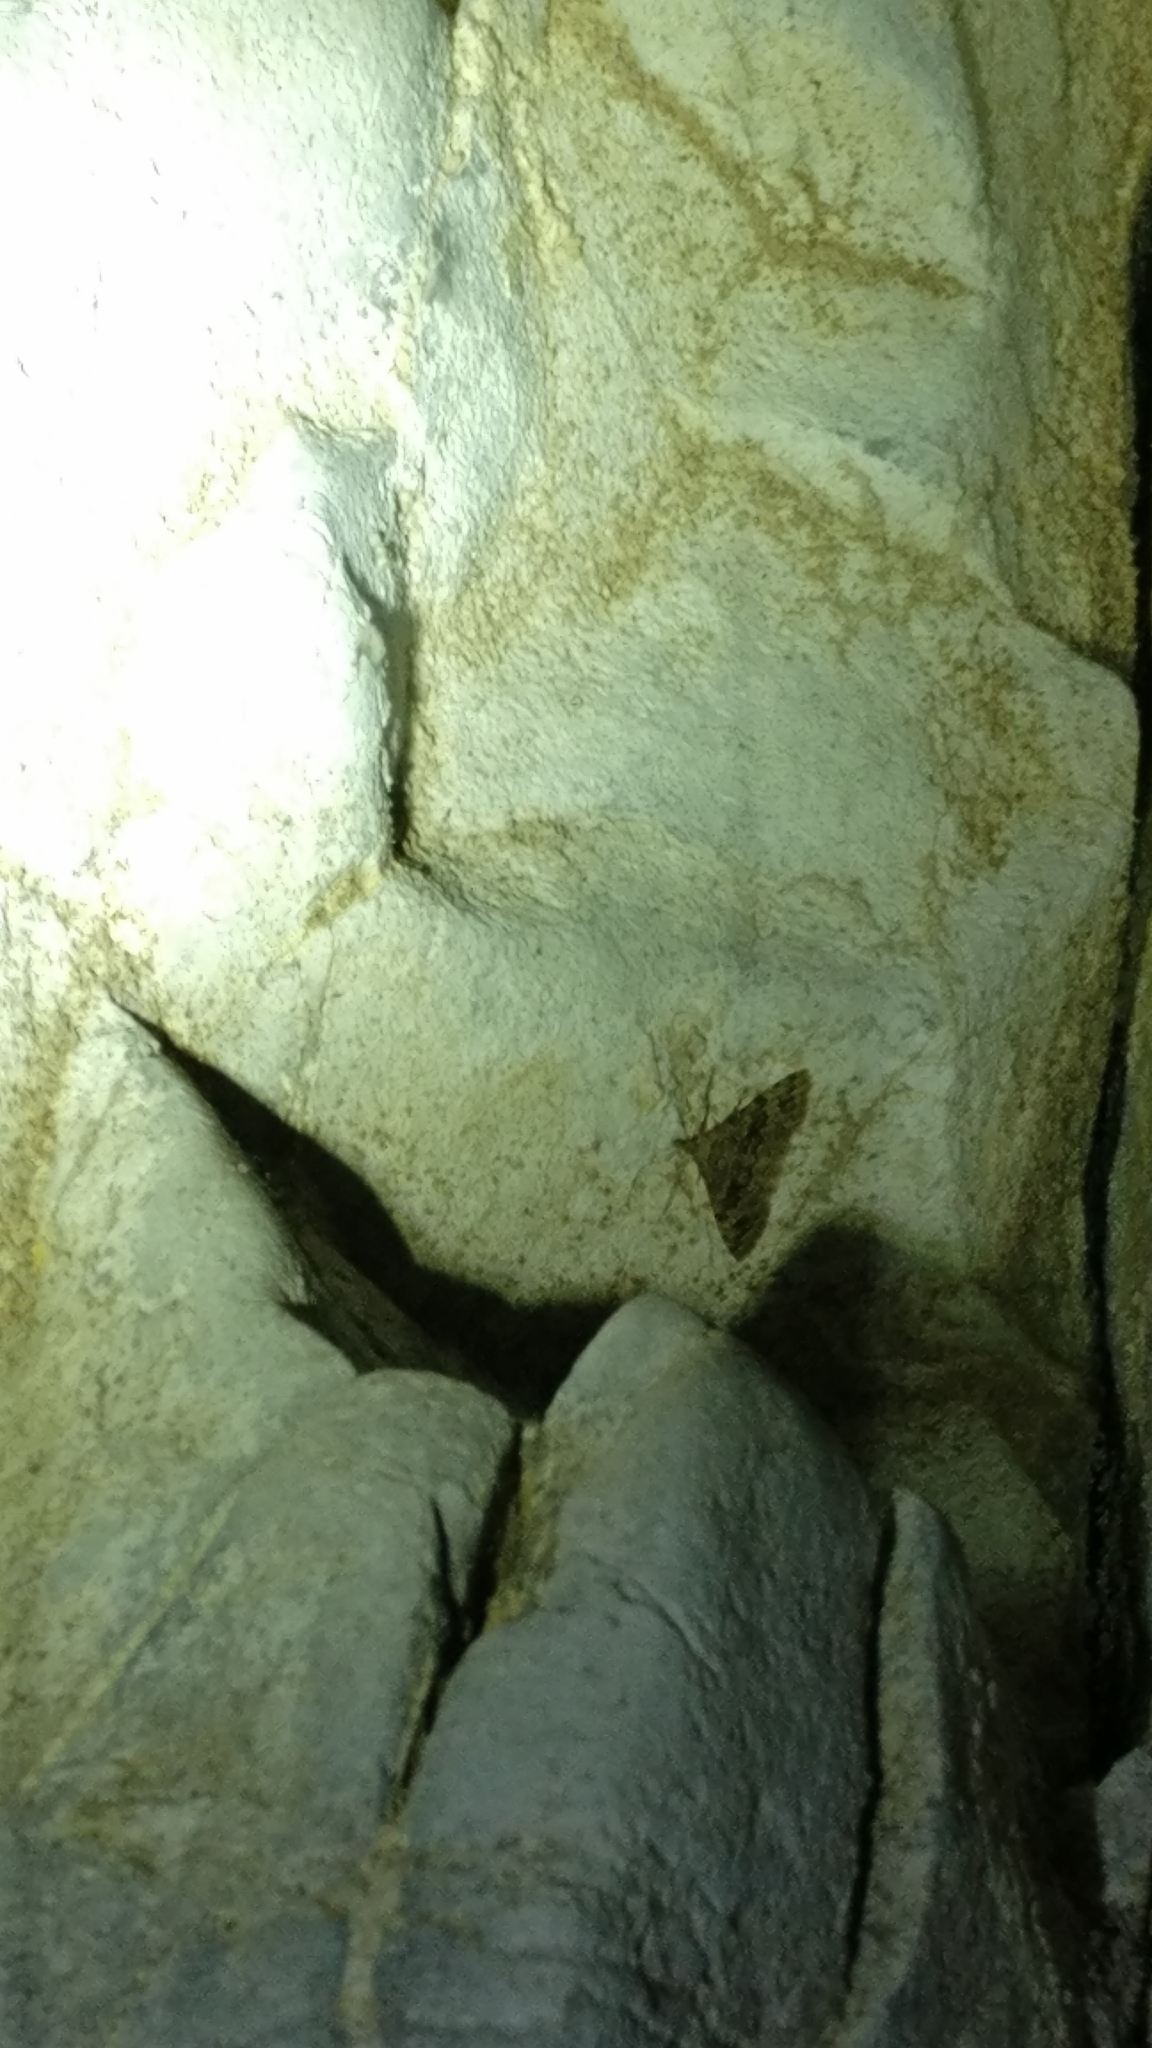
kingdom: Animalia
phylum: Arthropoda
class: Insecta
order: Lepidoptera
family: Alucitidae
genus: Alucita
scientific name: Alucita hexadactyla
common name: Twenty-plume moth
